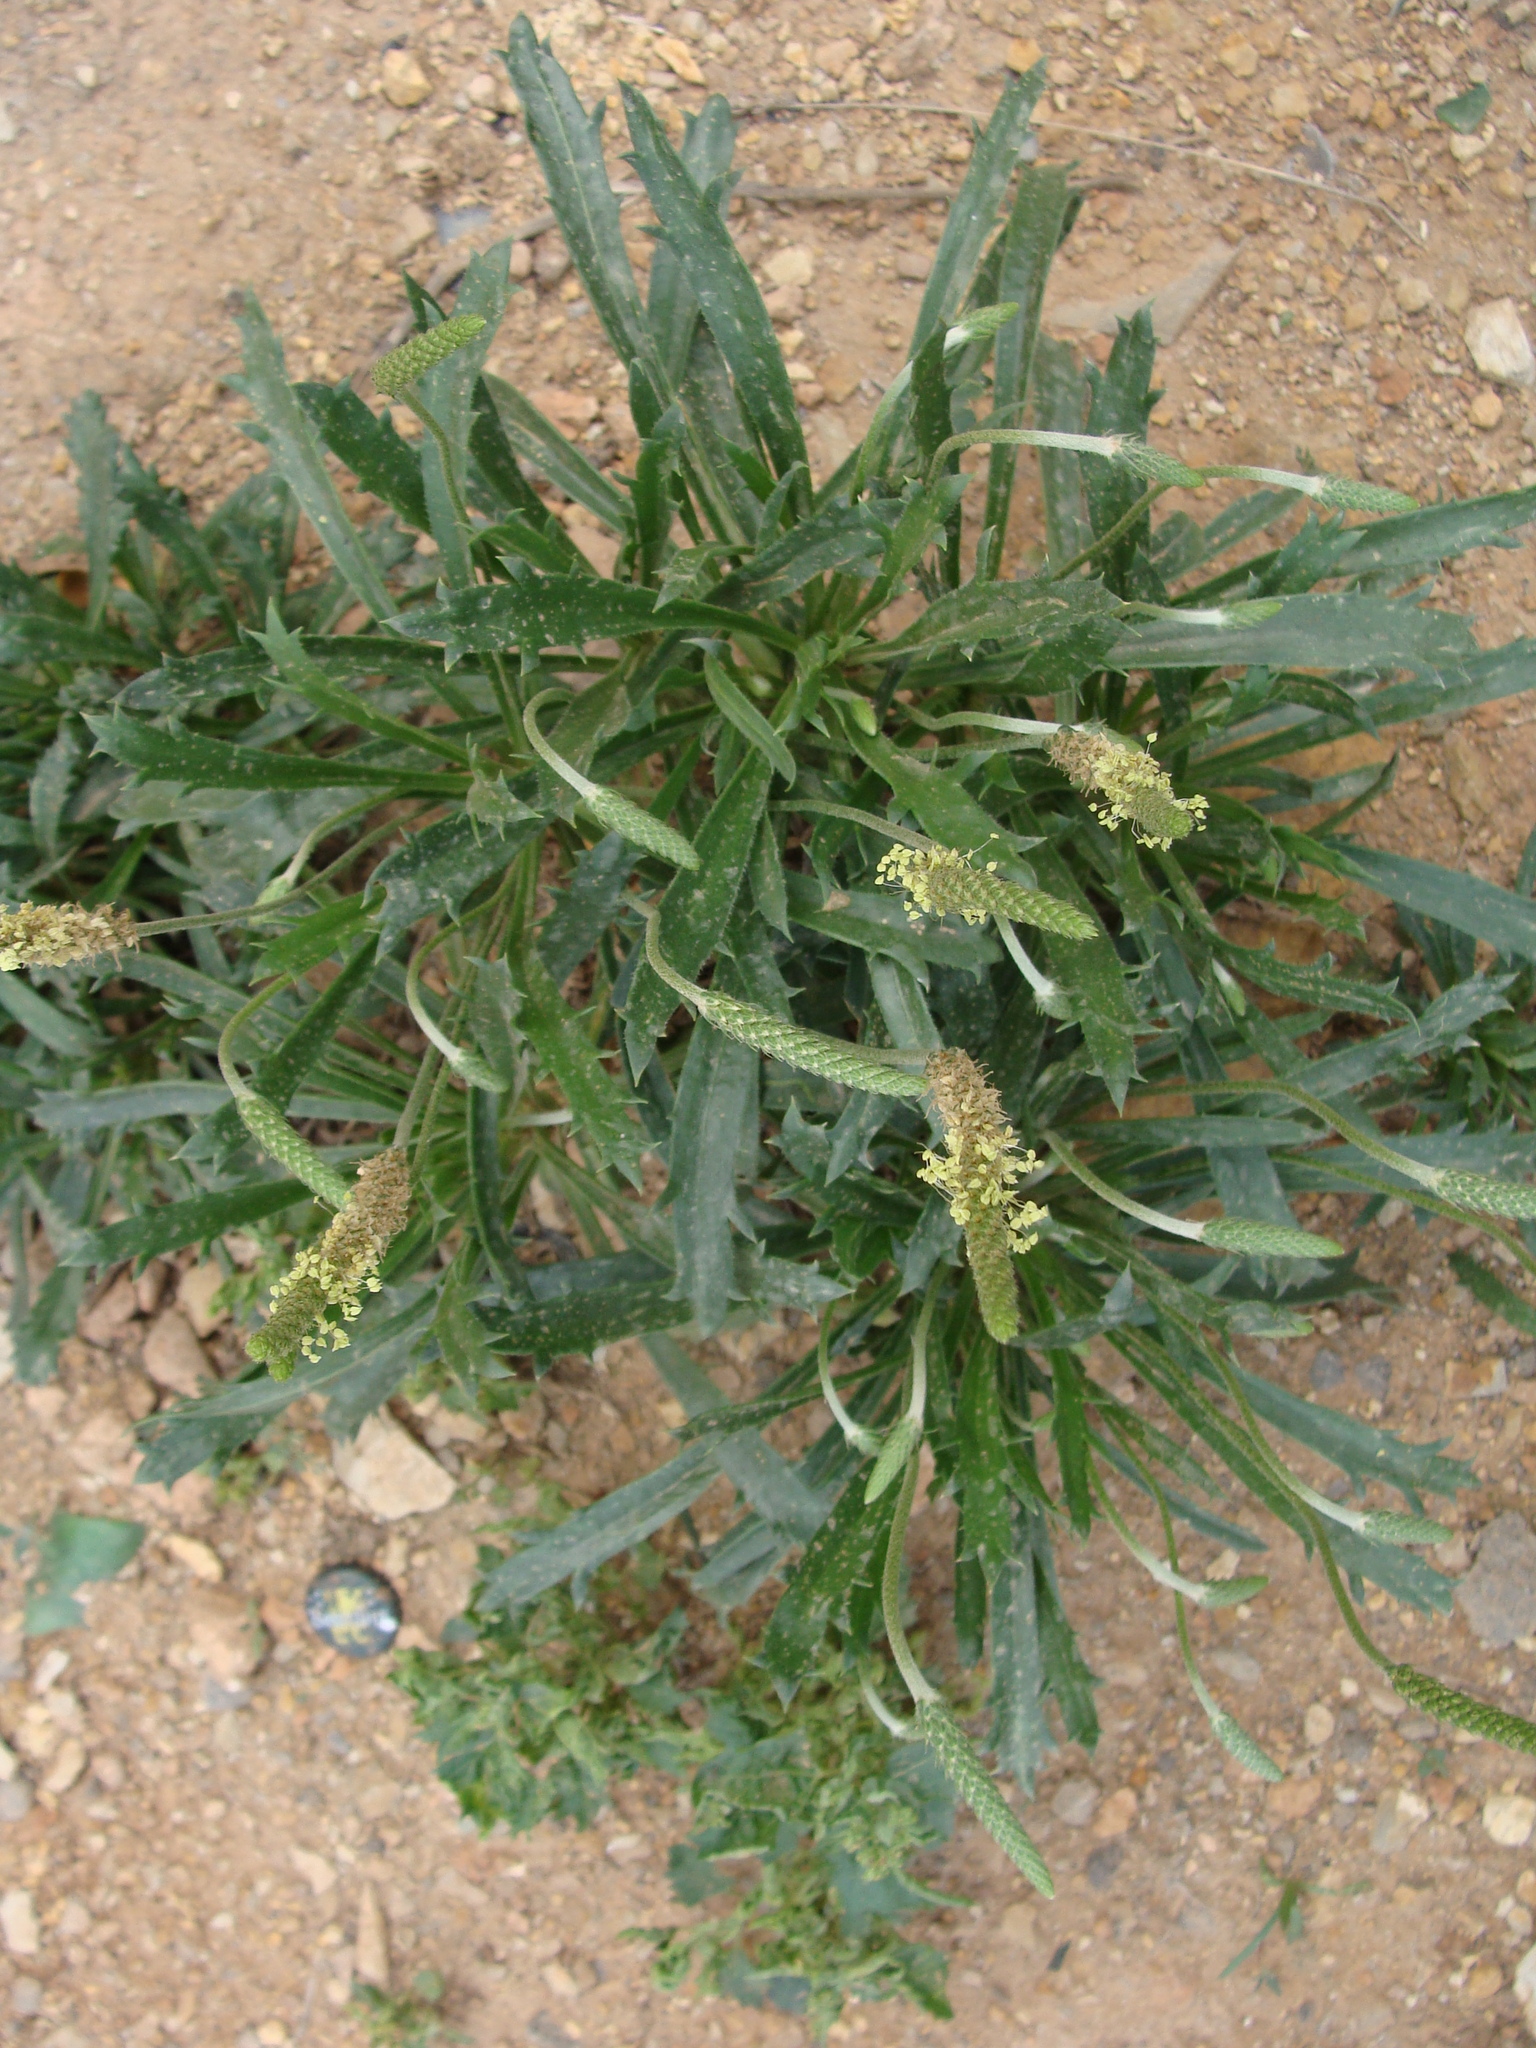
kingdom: Plantae
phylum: Tracheophyta
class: Magnoliopsida
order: Lamiales
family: Plantaginaceae
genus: Plantago
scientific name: Plantago coronopus
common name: Buck's-horn plantain
